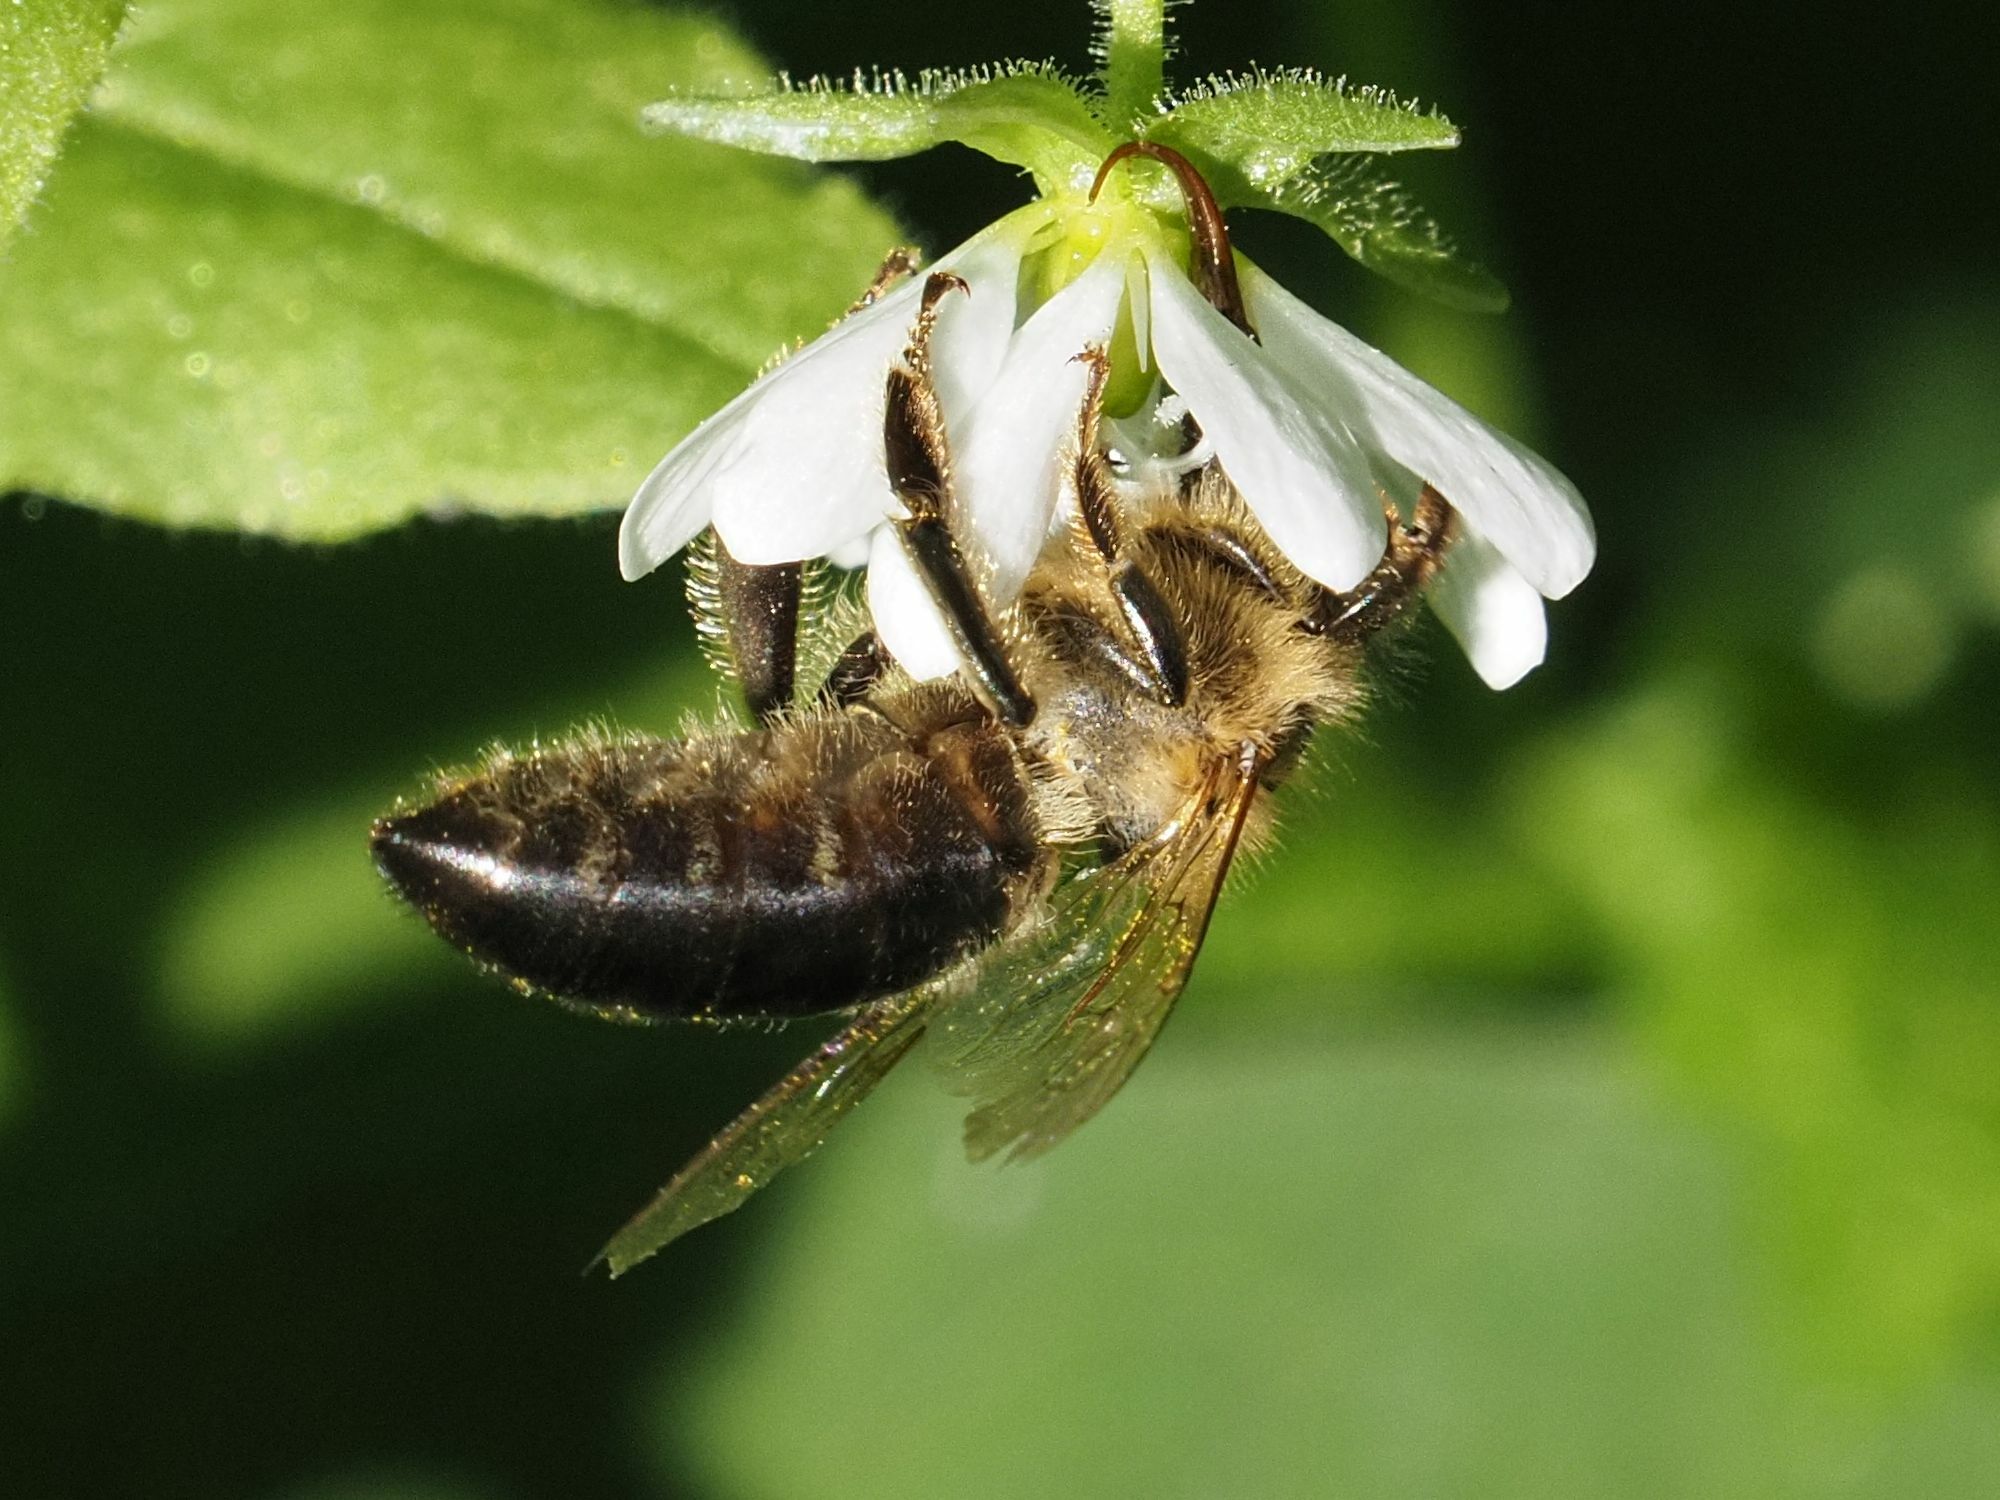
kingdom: Animalia
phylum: Arthropoda
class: Insecta
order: Hymenoptera
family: Apidae
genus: Apis
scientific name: Apis mellifera
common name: Honey bee
